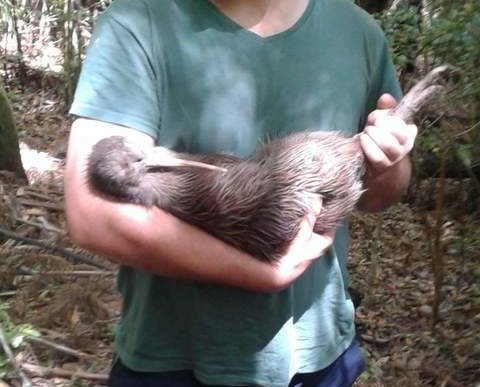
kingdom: Animalia
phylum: Chordata
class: Aves
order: Apterygiformes
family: Apterygidae
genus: Apteryx
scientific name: Apteryx mantelli
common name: North island brown kiwi
